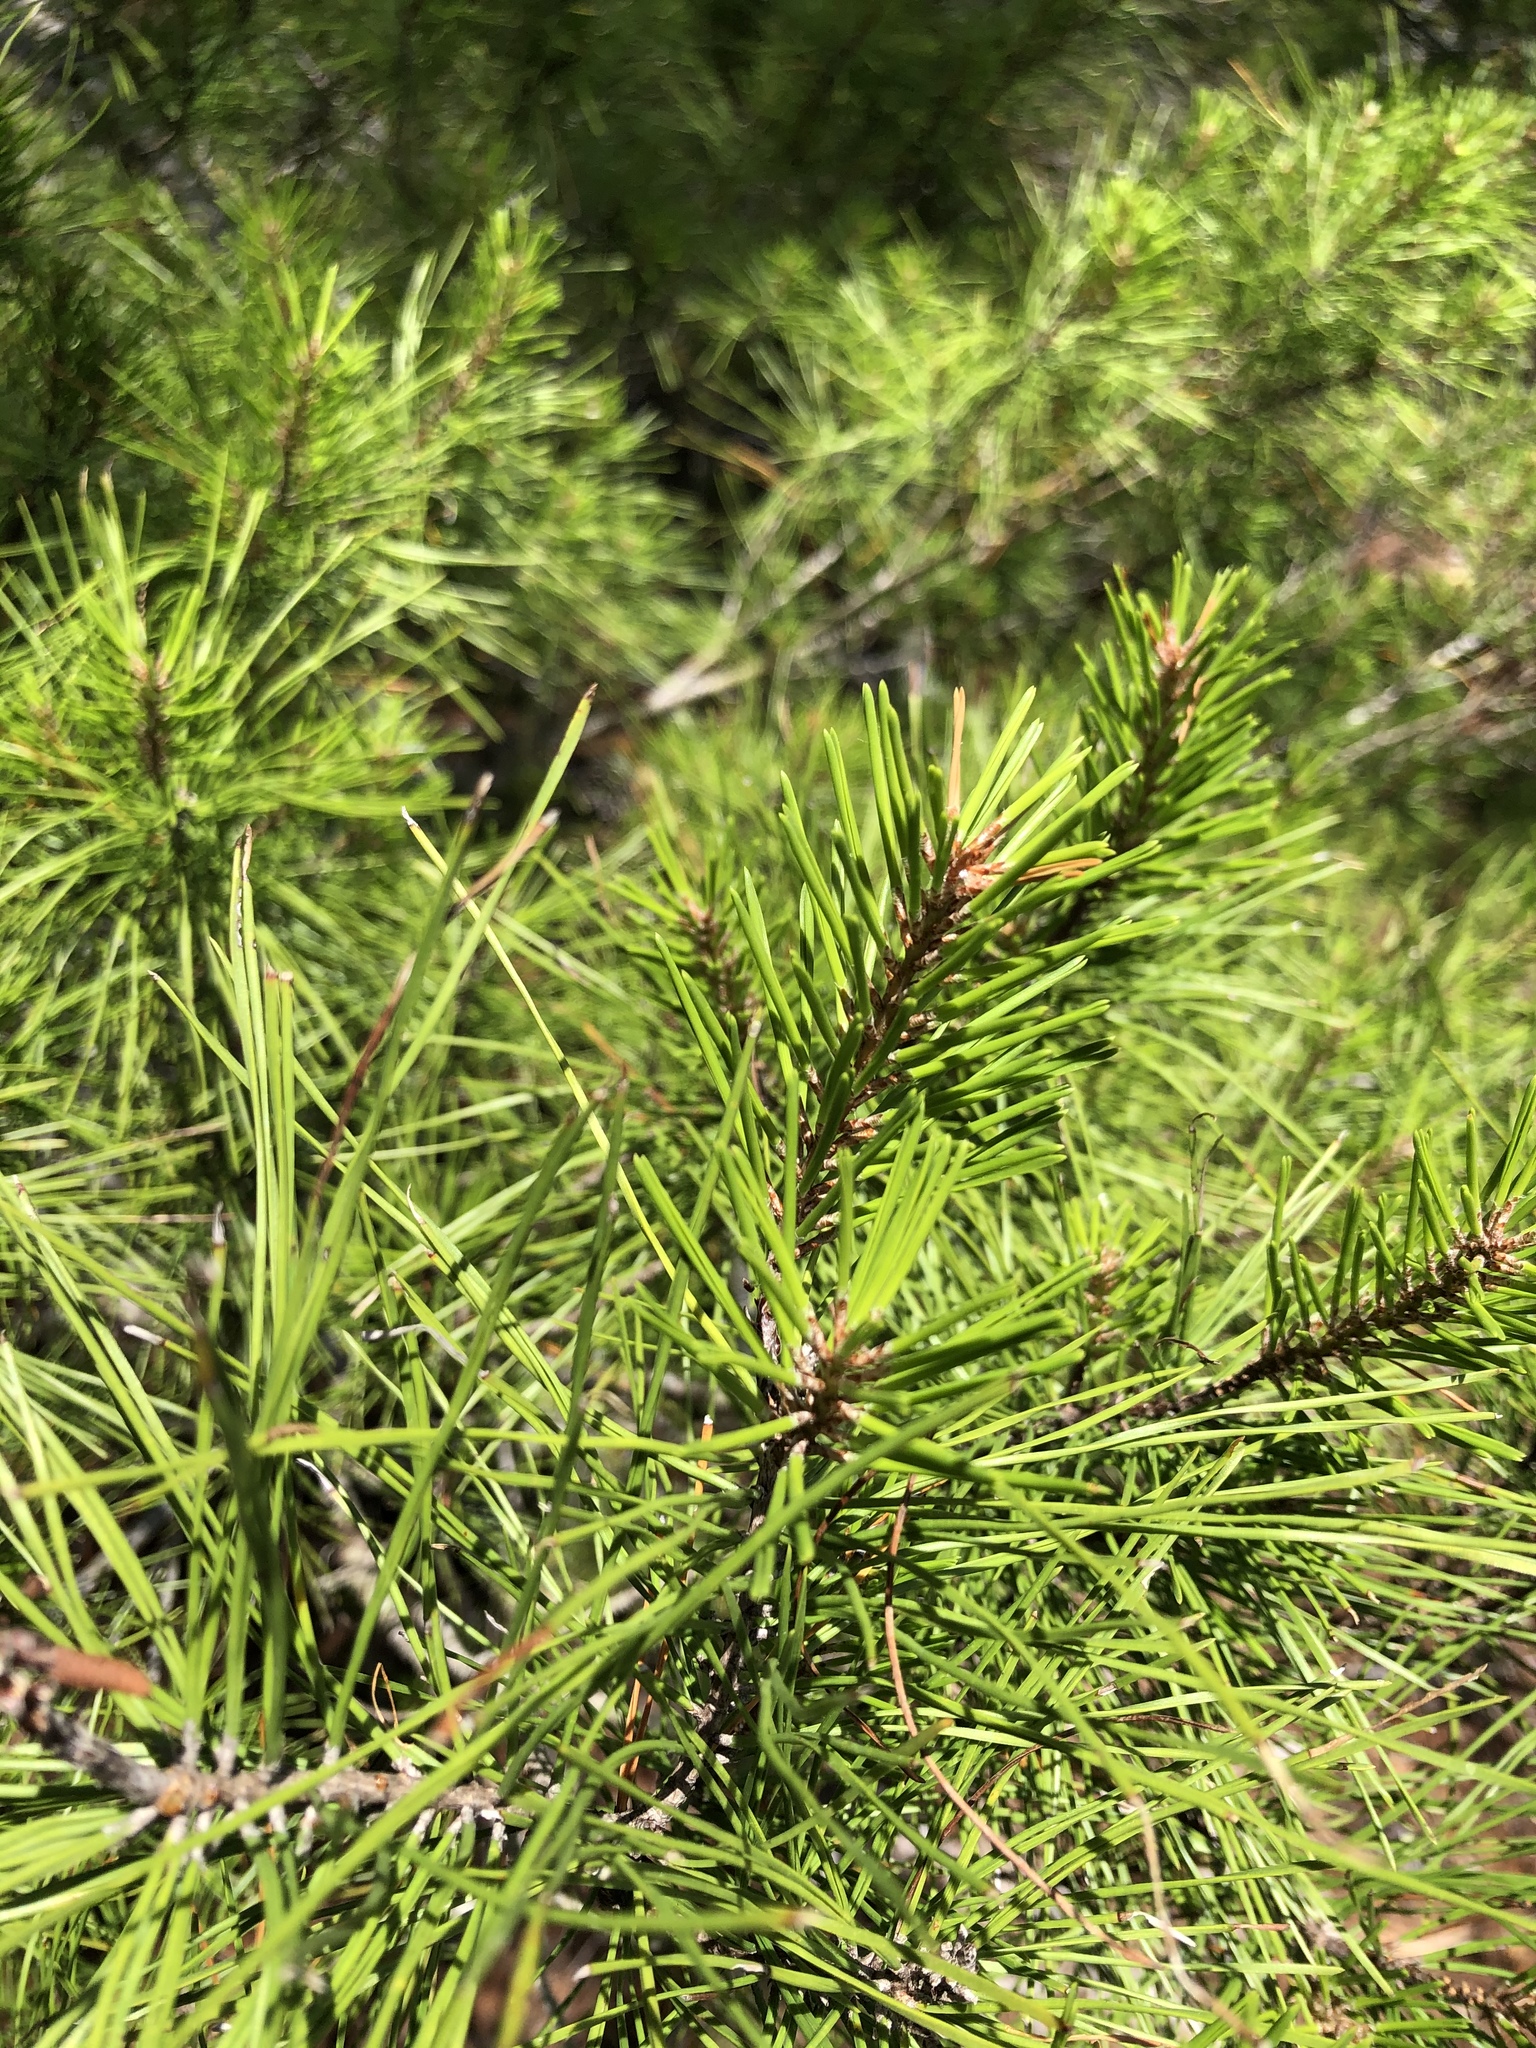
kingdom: Plantae
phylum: Tracheophyta
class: Pinopsida
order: Pinales
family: Pinaceae
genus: Pinus
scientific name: Pinus clausa
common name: Sand pine
